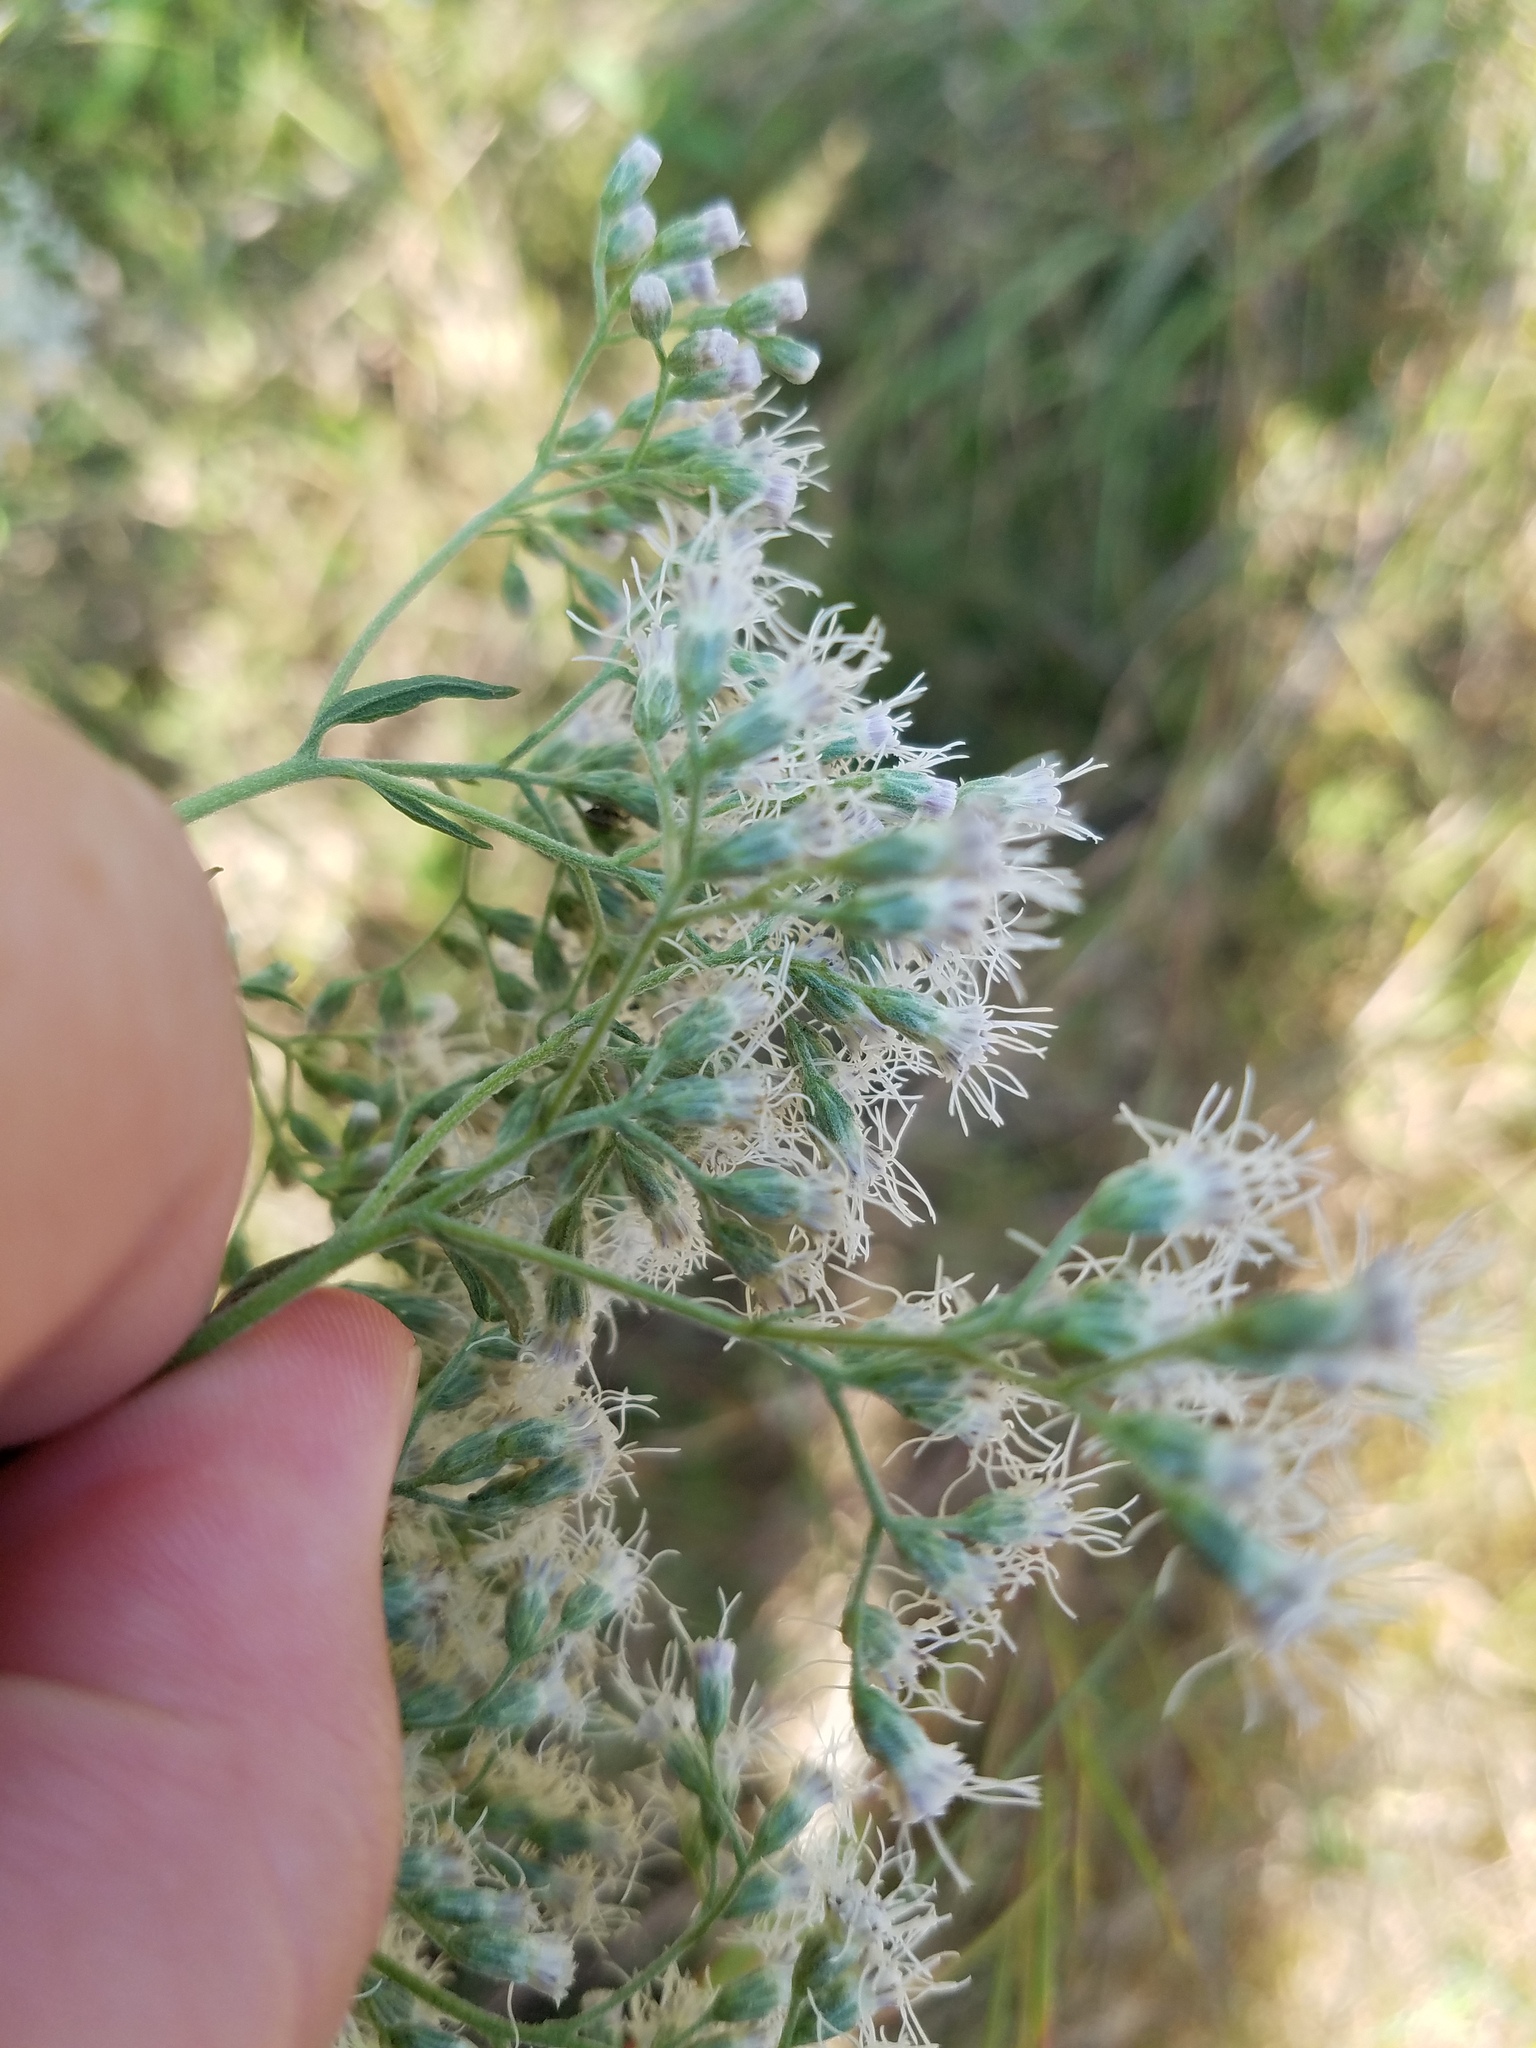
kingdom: Plantae
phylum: Tracheophyta
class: Magnoliopsida
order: Asterales
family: Asteraceae
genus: Eupatorium
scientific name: Eupatorium serotinum
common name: Late boneset
